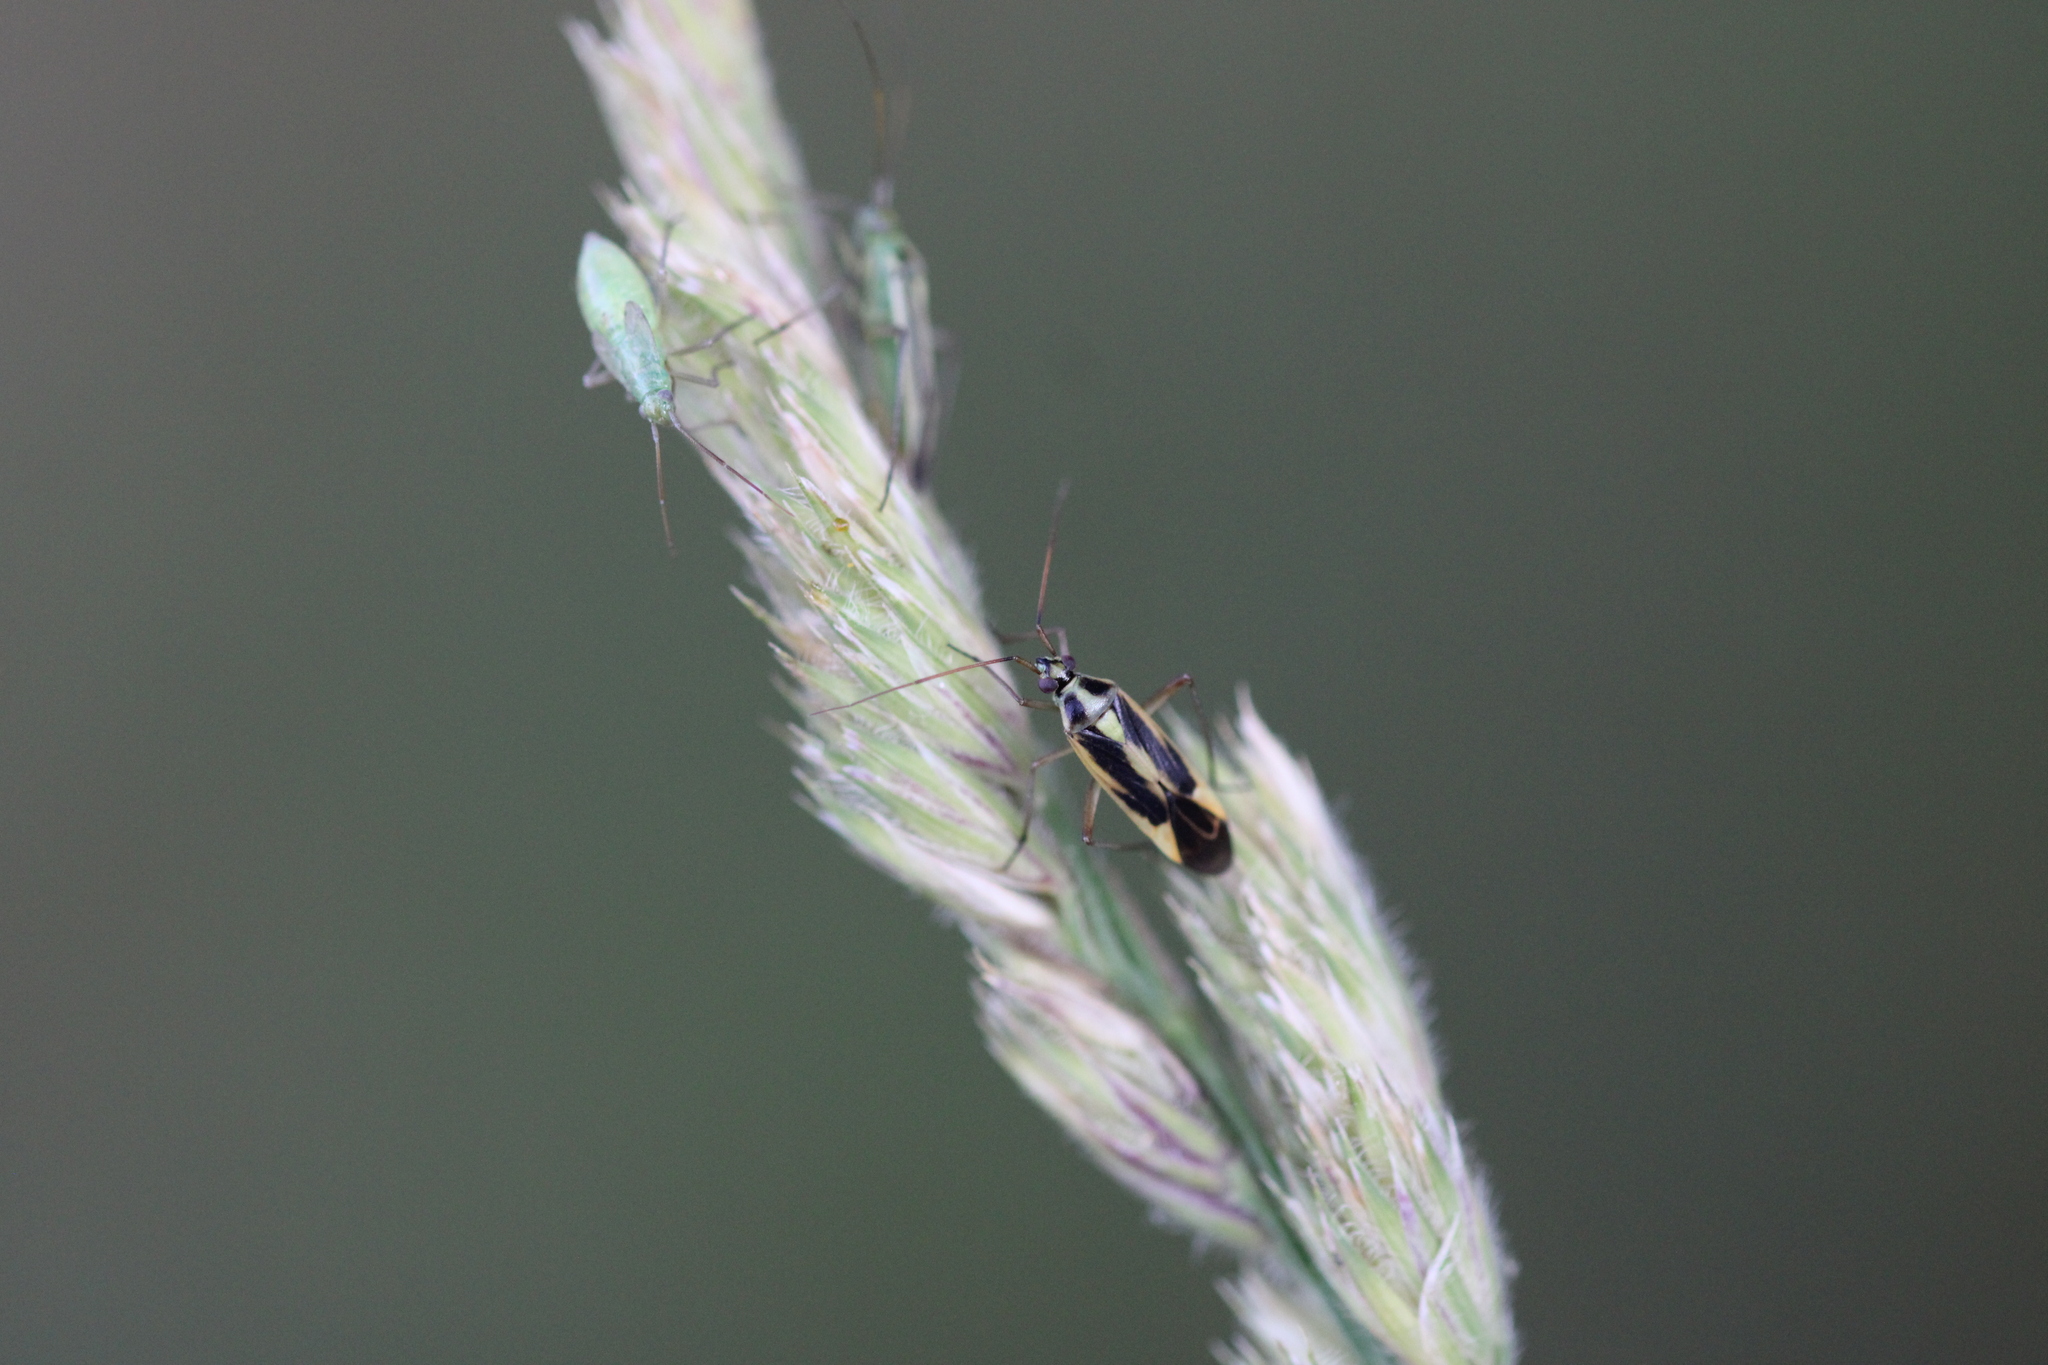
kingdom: Animalia
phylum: Arthropoda
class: Insecta
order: Hemiptera
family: Miridae
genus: Stenotus
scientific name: Stenotus binotatus
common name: Plant bug
